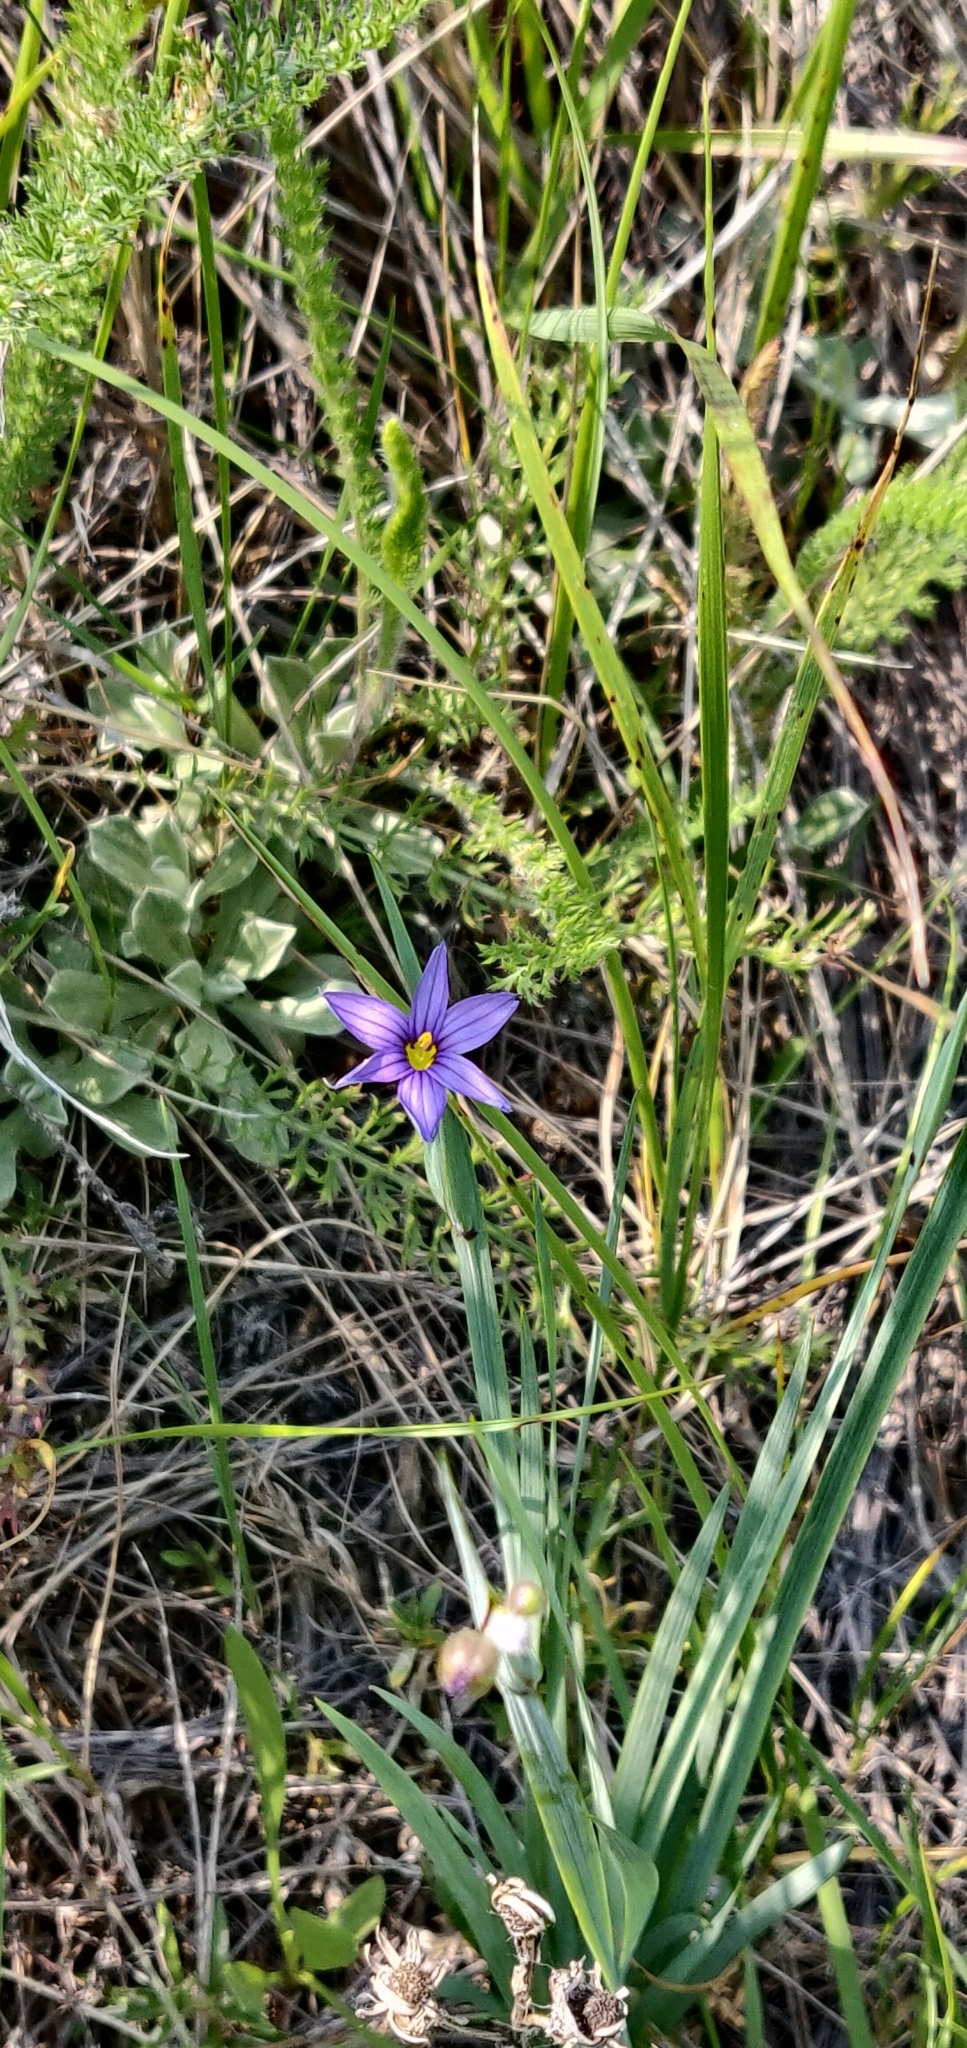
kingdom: Plantae
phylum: Tracheophyta
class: Liliopsida
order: Asparagales
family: Iridaceae
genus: Sisyrinchium
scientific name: Sisyrinchium montanum
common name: American blue-eyed-grass
